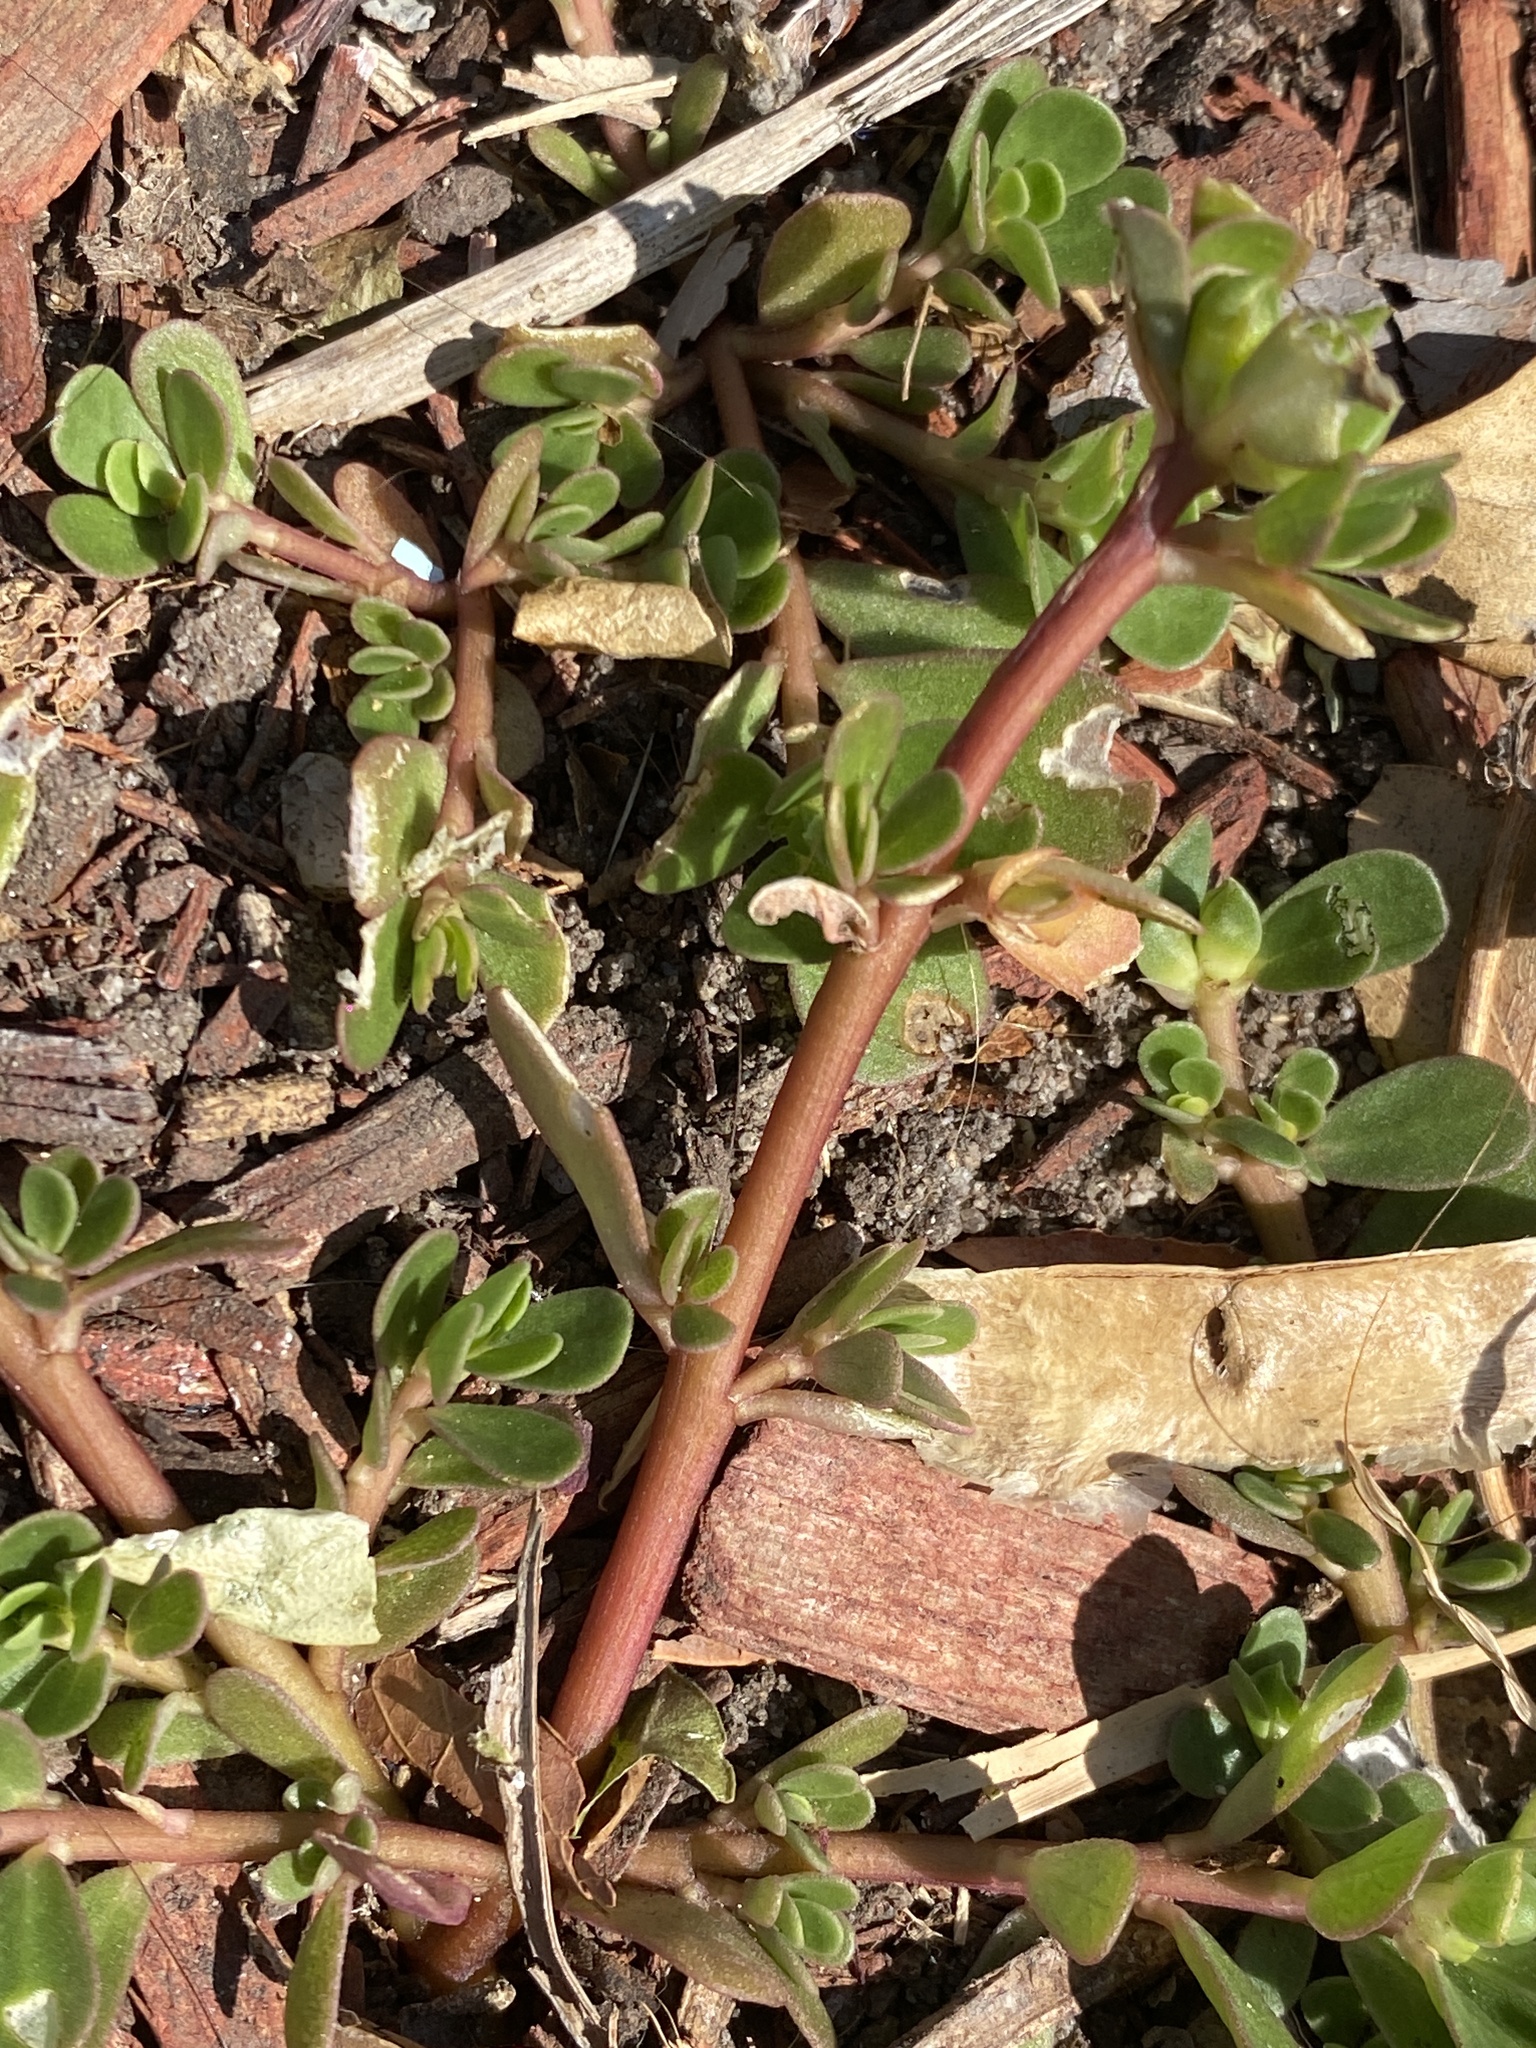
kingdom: Plantae
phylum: Tracheophyta
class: Magnoliopsida
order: Caryophyllales
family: Portulacaceae
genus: Portulaca
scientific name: Portulaca oleracea
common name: Common purslane
